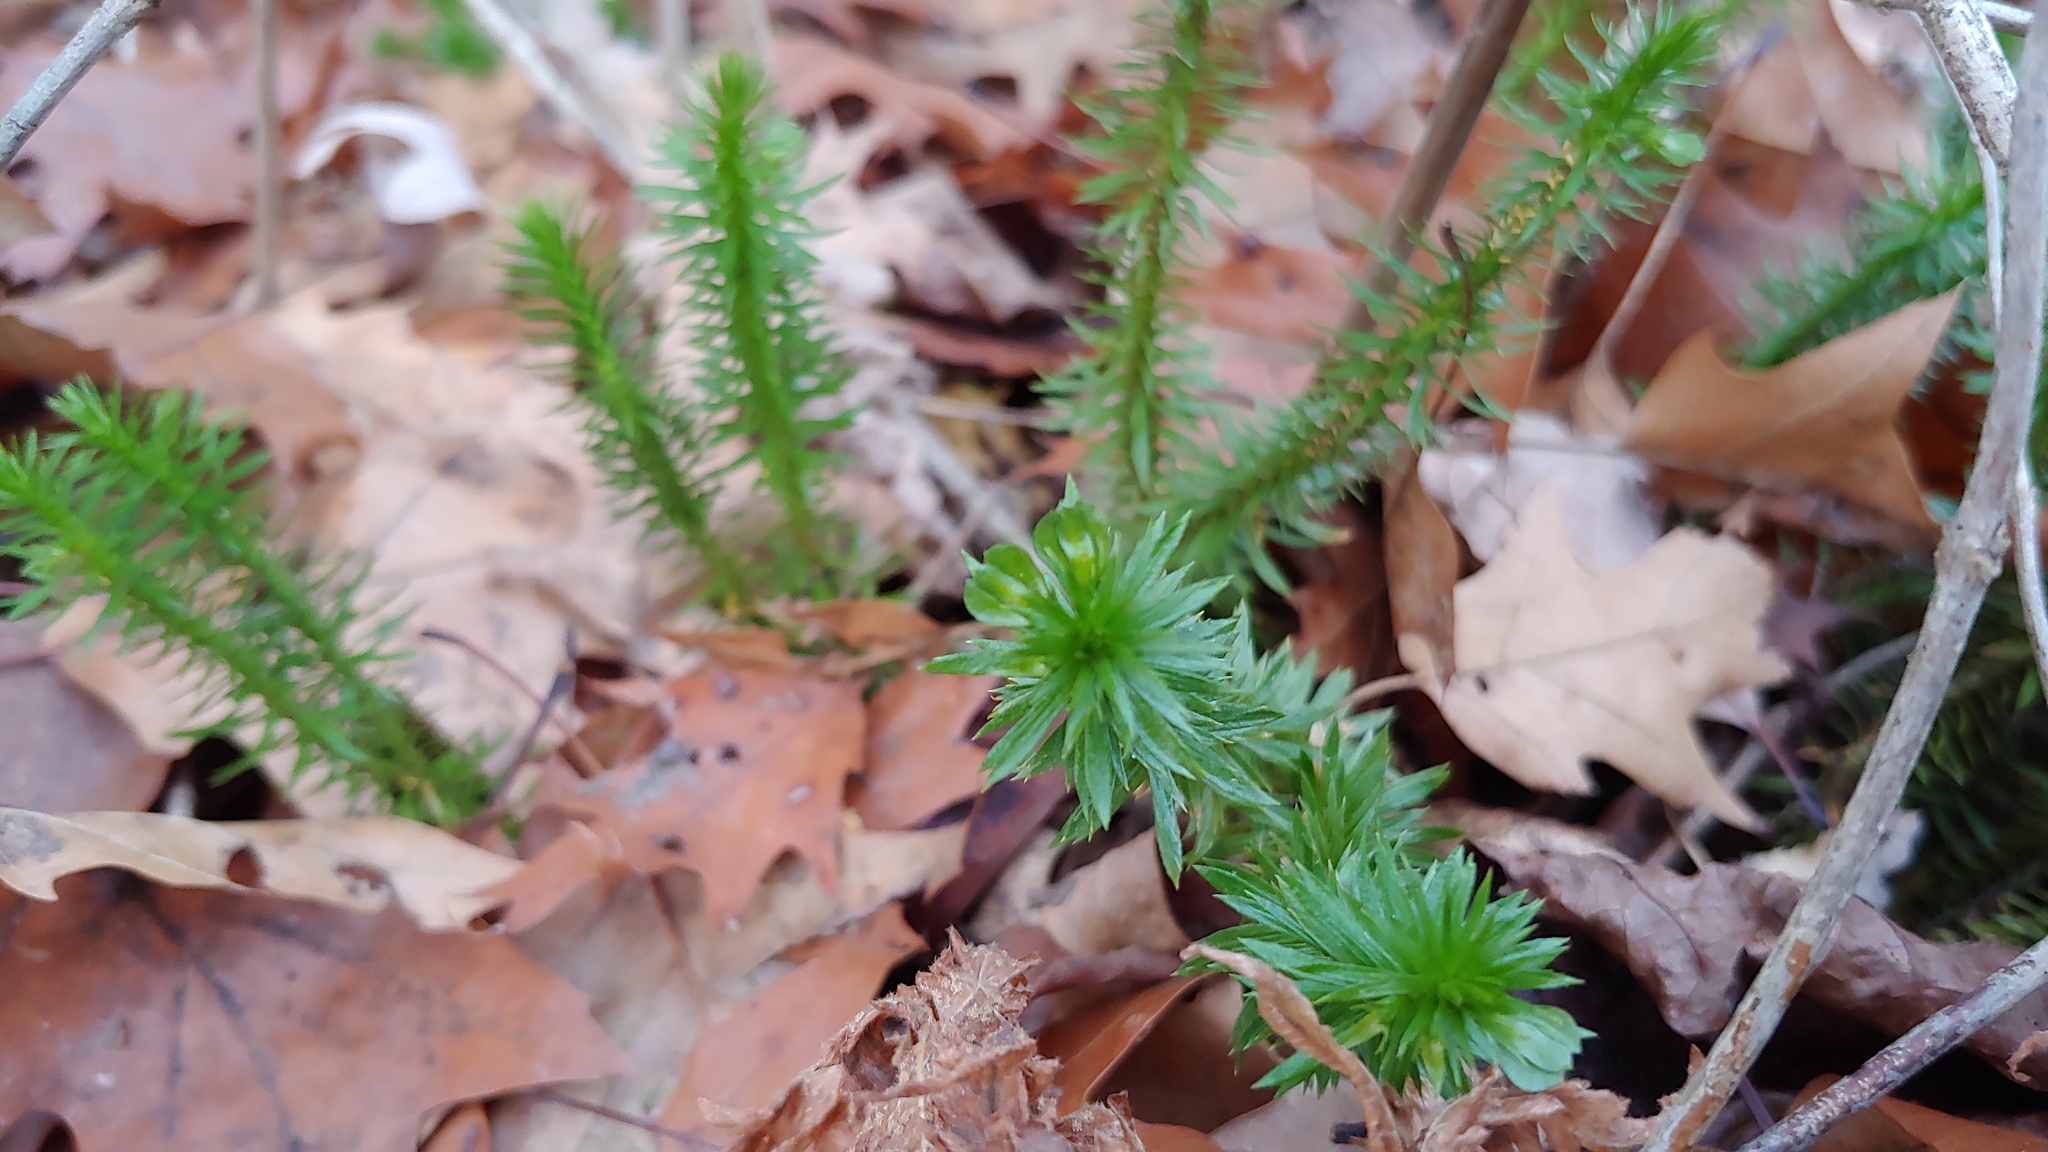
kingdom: Plantae
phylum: Tracheophyta
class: Lycopodiopsida
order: Lycopodiales
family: Lycopodiaceae
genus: Huperzia
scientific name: Huperzia lucidula
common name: Shining clubmoss
